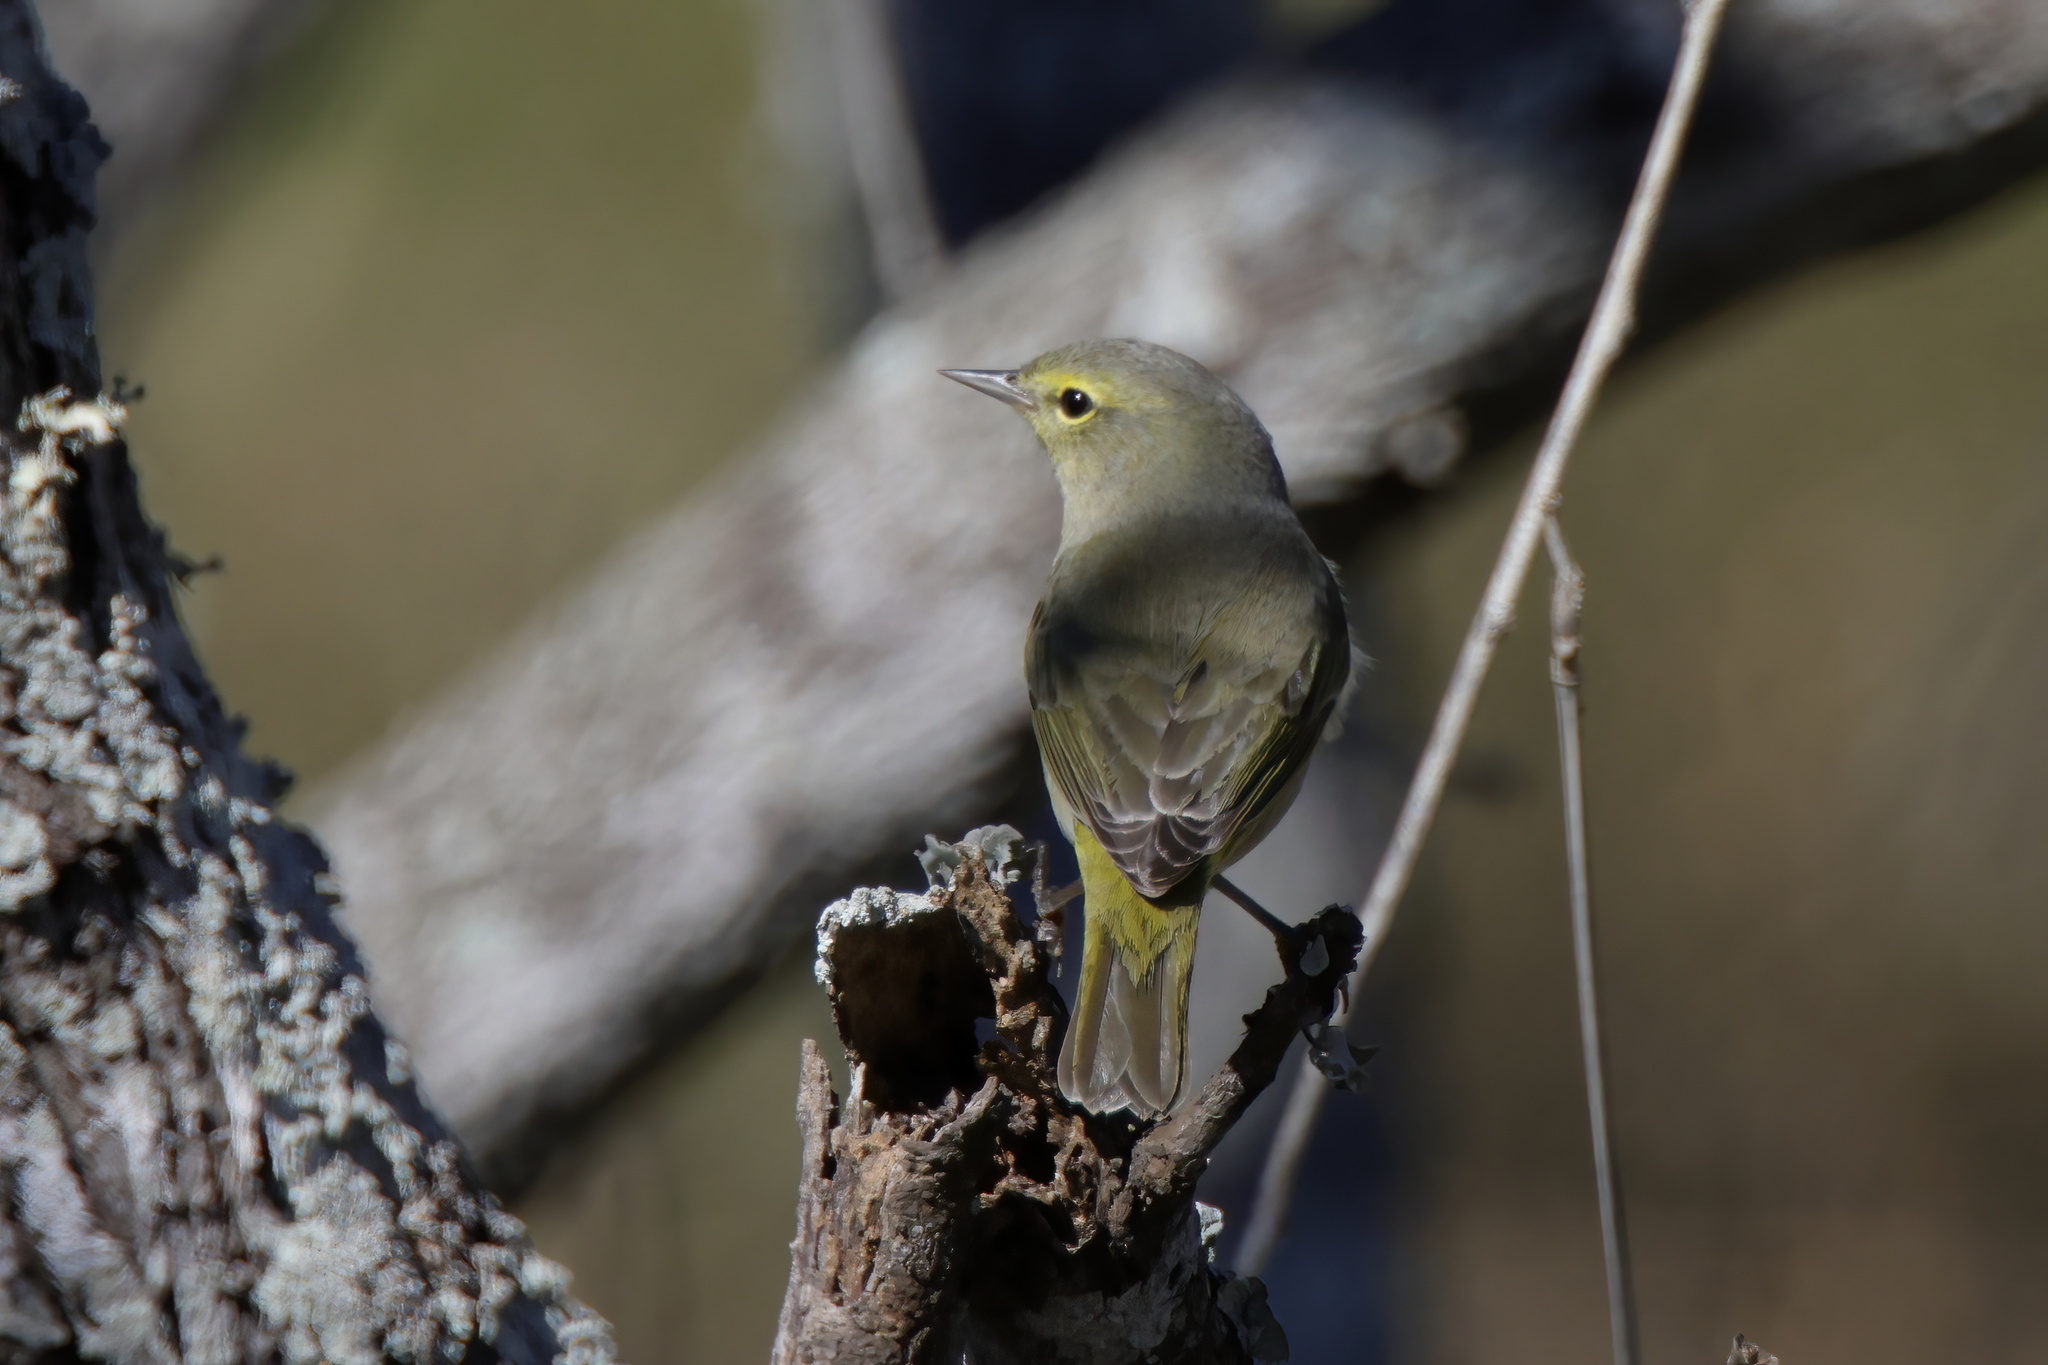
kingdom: Animalia
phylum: Chordata
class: Aves
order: Passeriformes
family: Parulidae
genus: Leiothlypis
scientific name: Leiothlypis celata
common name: Orange-crowned warbler
